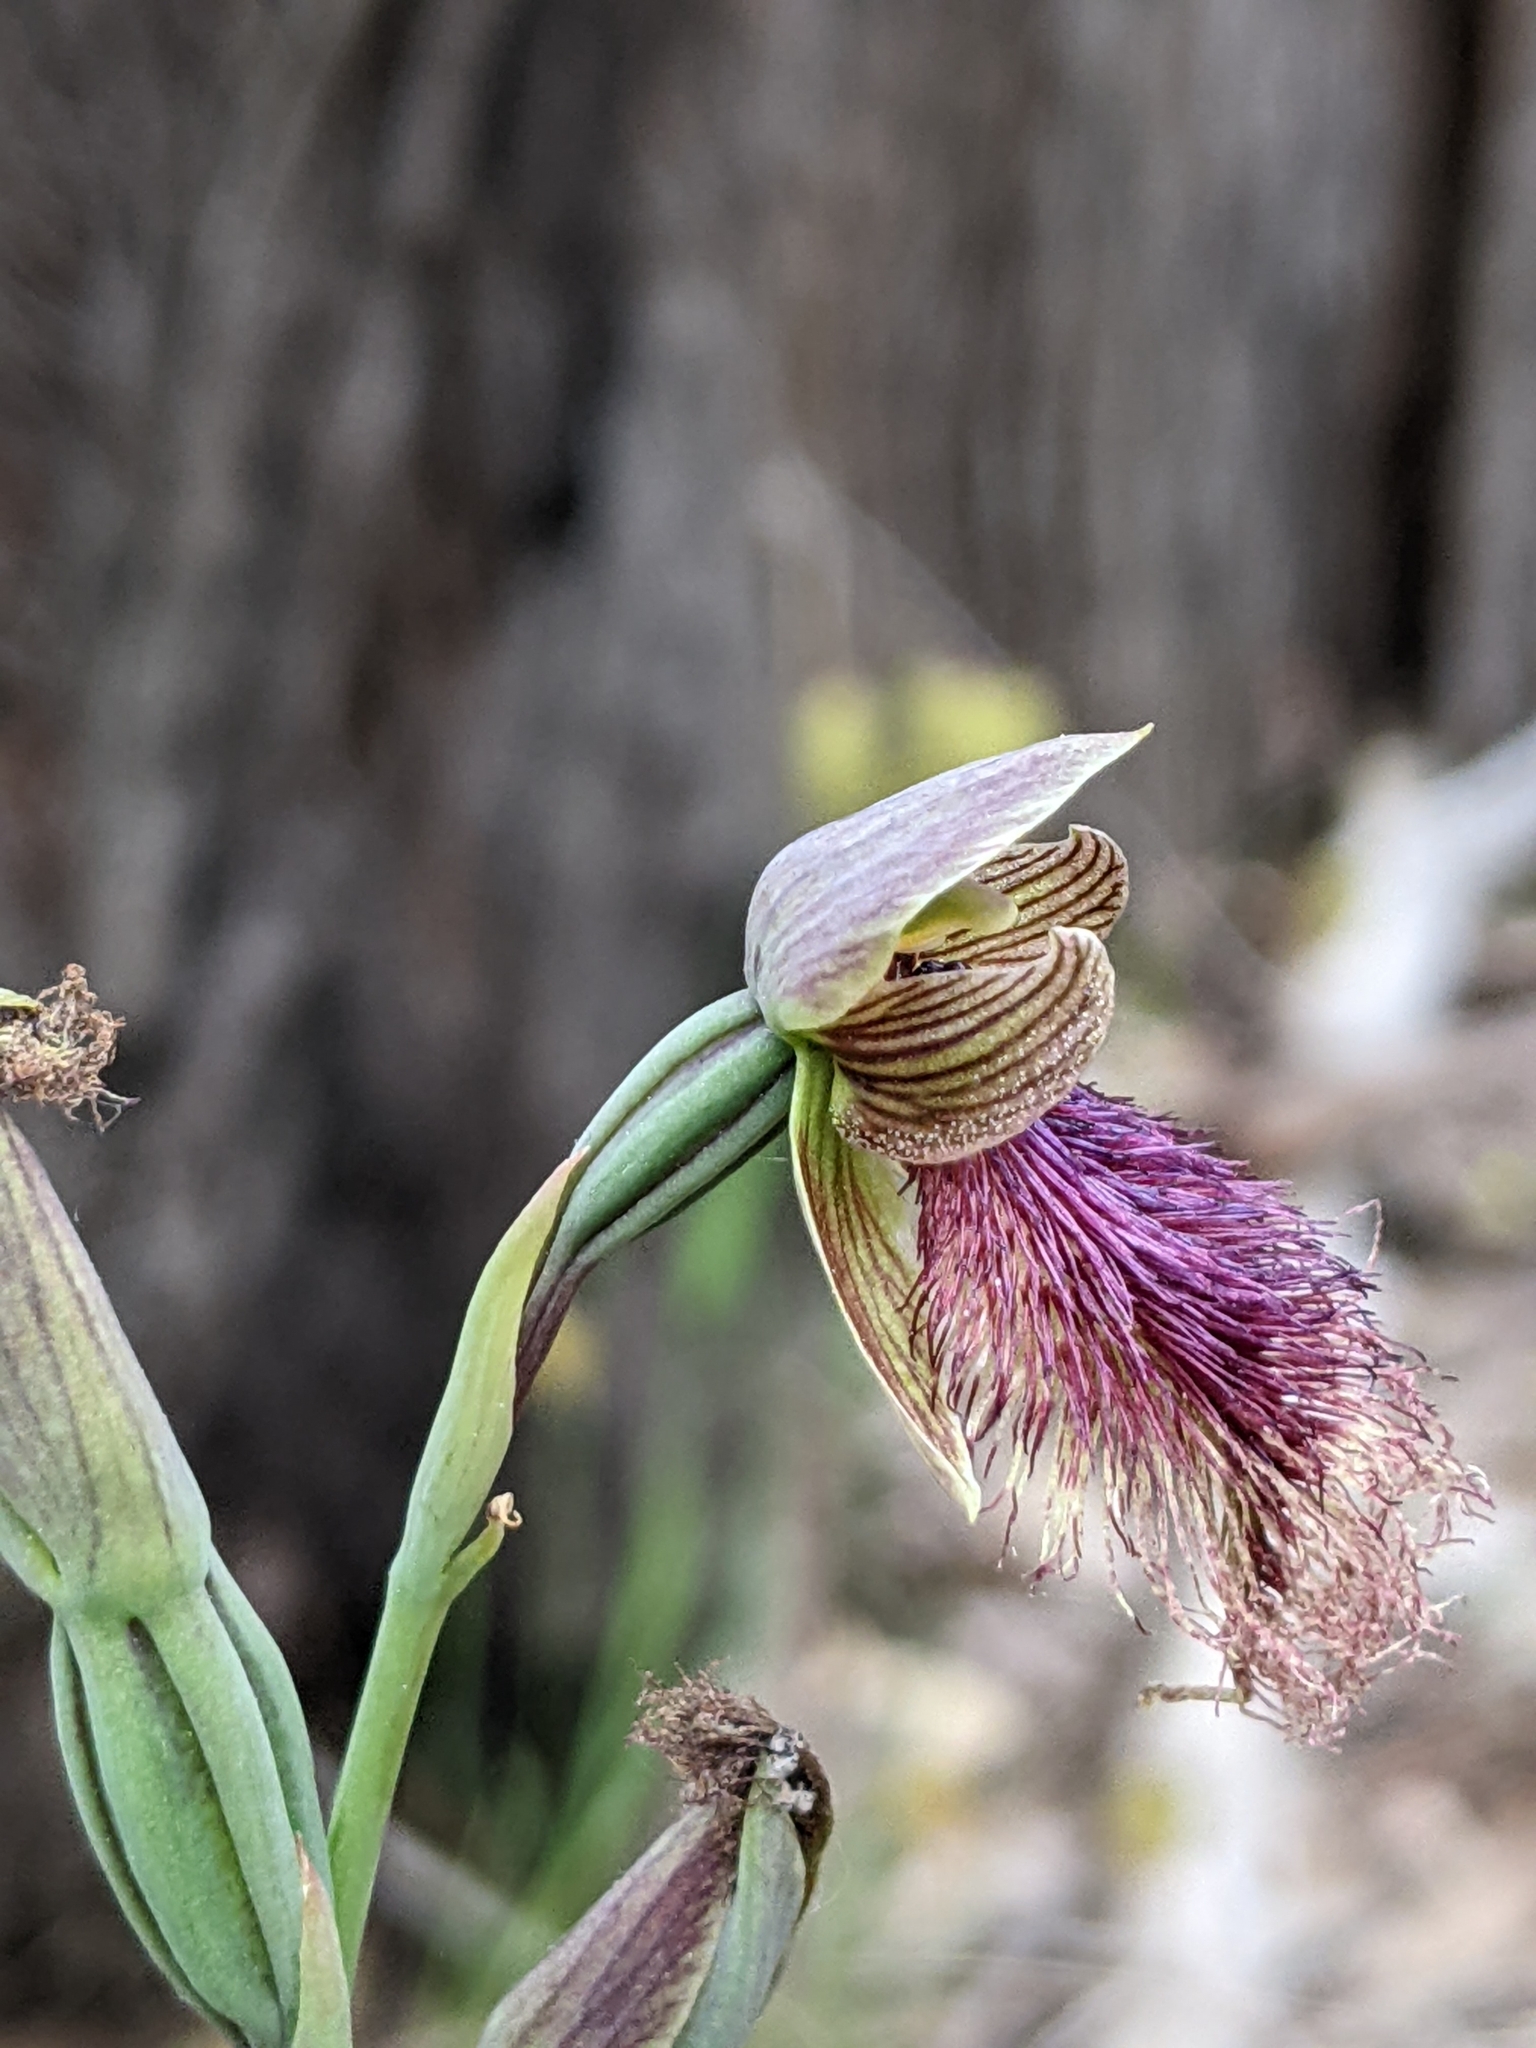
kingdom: Plantae
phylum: Tracheophyta
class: Liliopsida
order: Asparagales
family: Orchidaceae
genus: Calochilus
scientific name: Calochilus robertsonii
